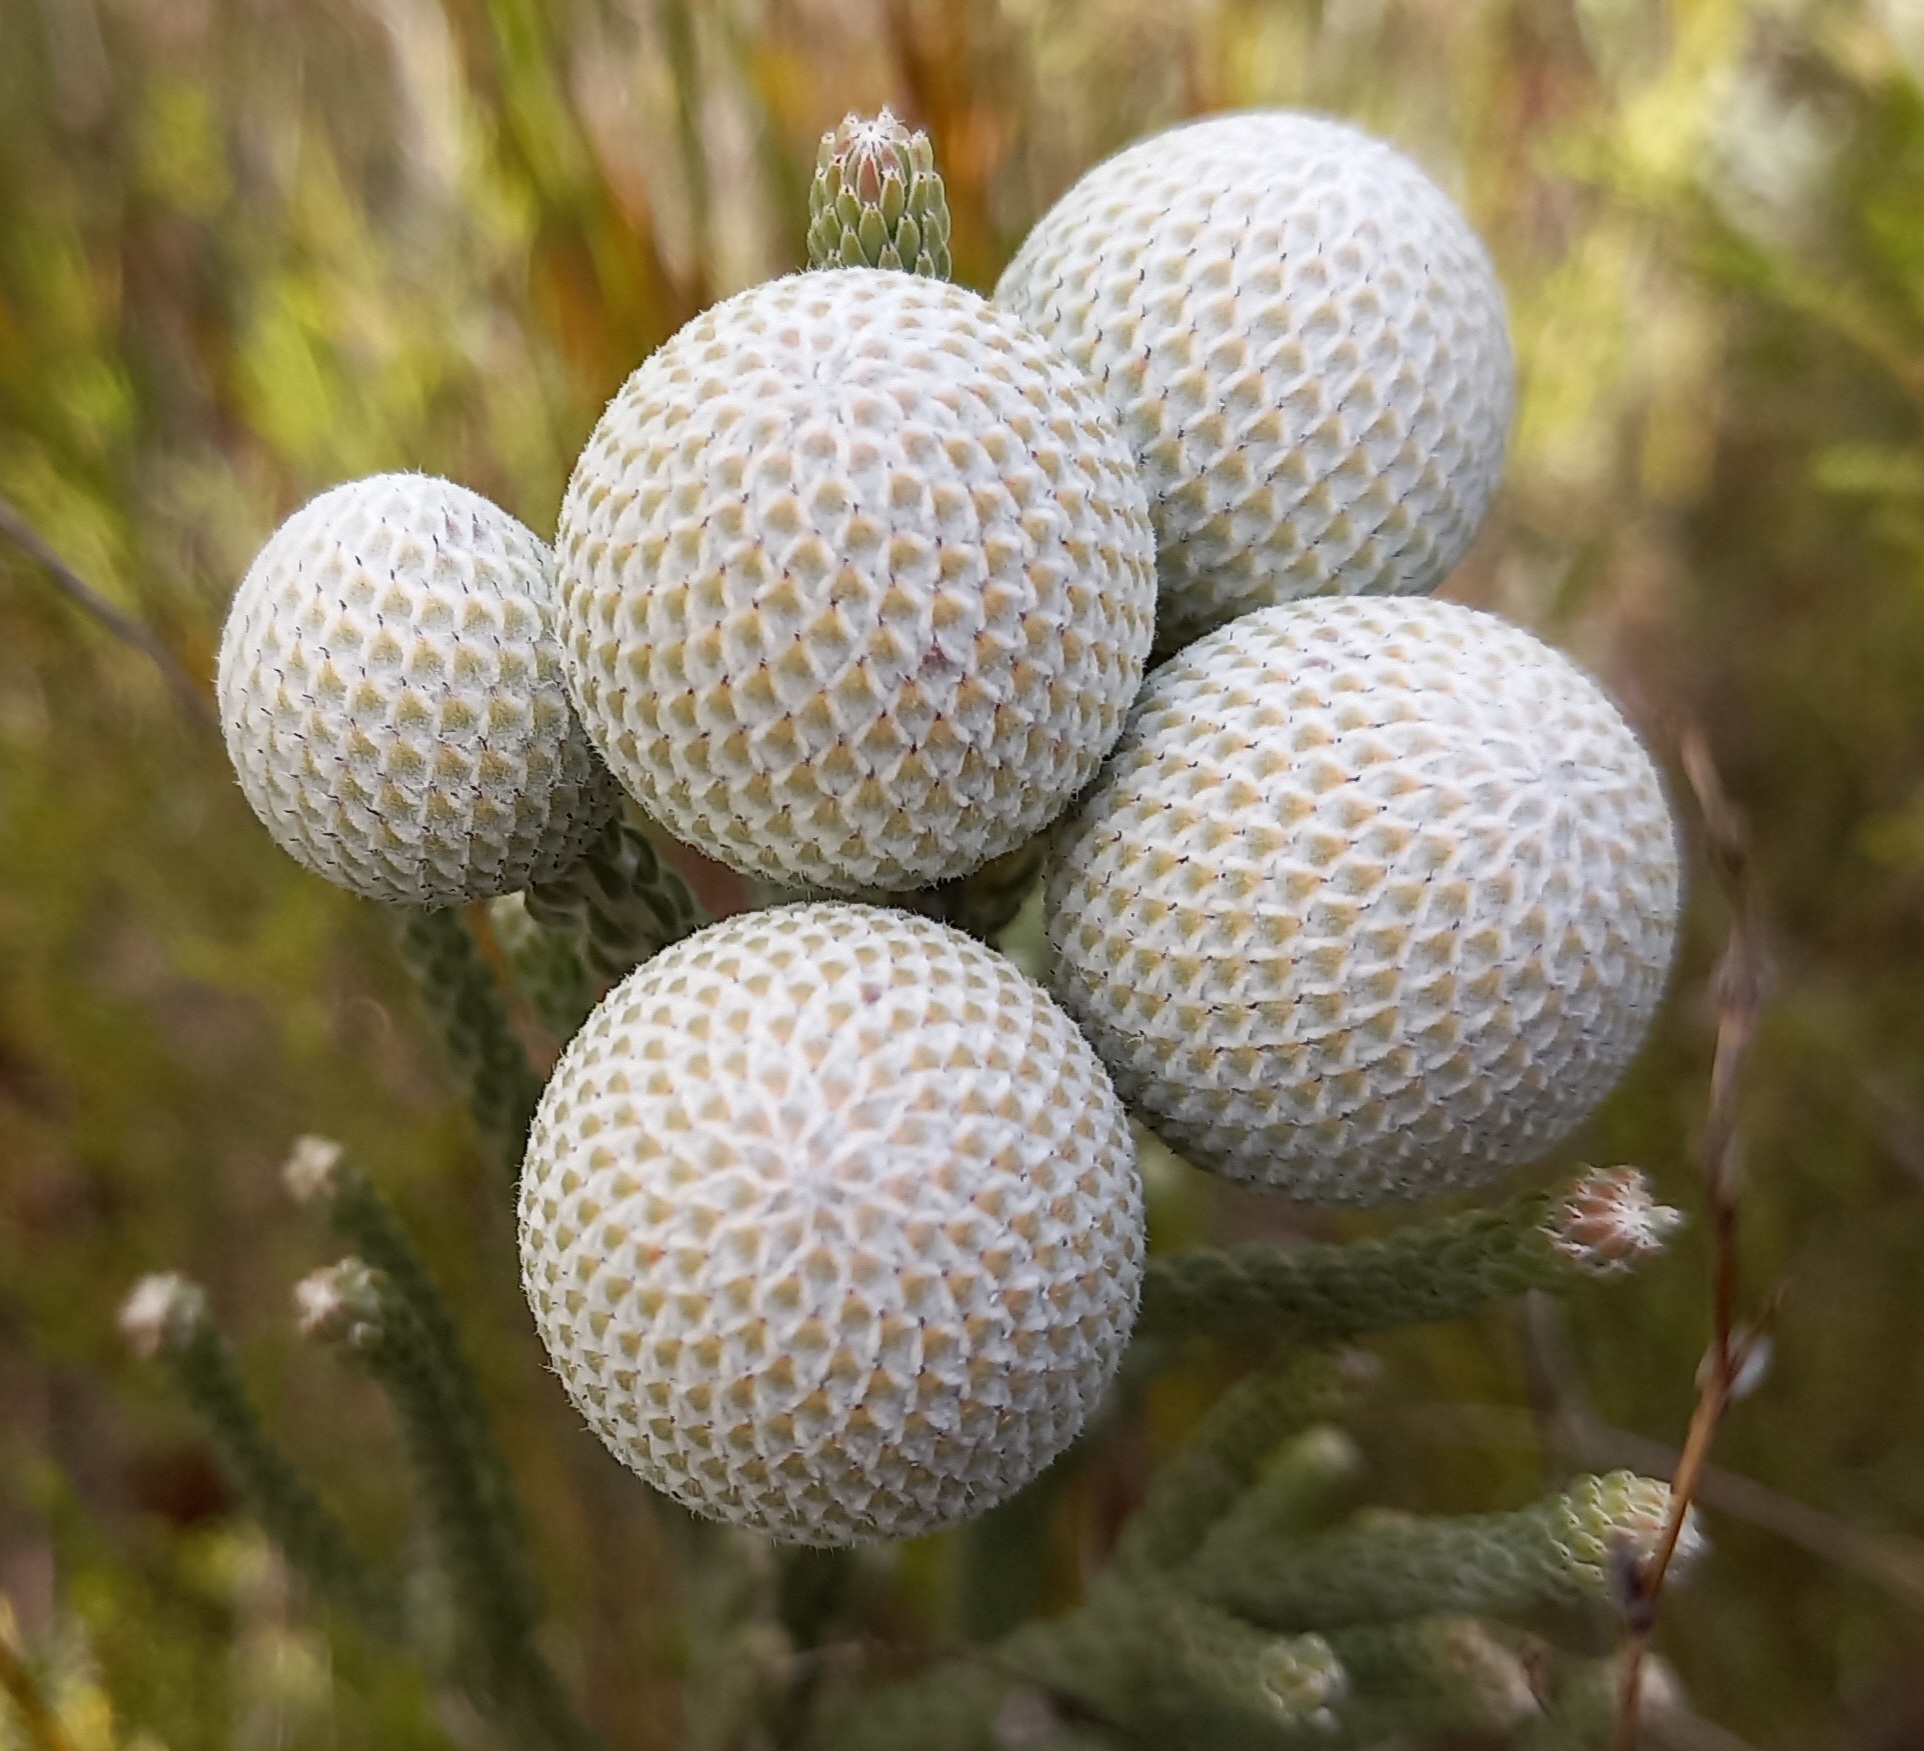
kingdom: Plantae
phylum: Tracheophyta
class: Magnoliopsida
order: Bruniales
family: Bruniaceae
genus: Brunia
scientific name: Brunia laevis
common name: Silver brunia
